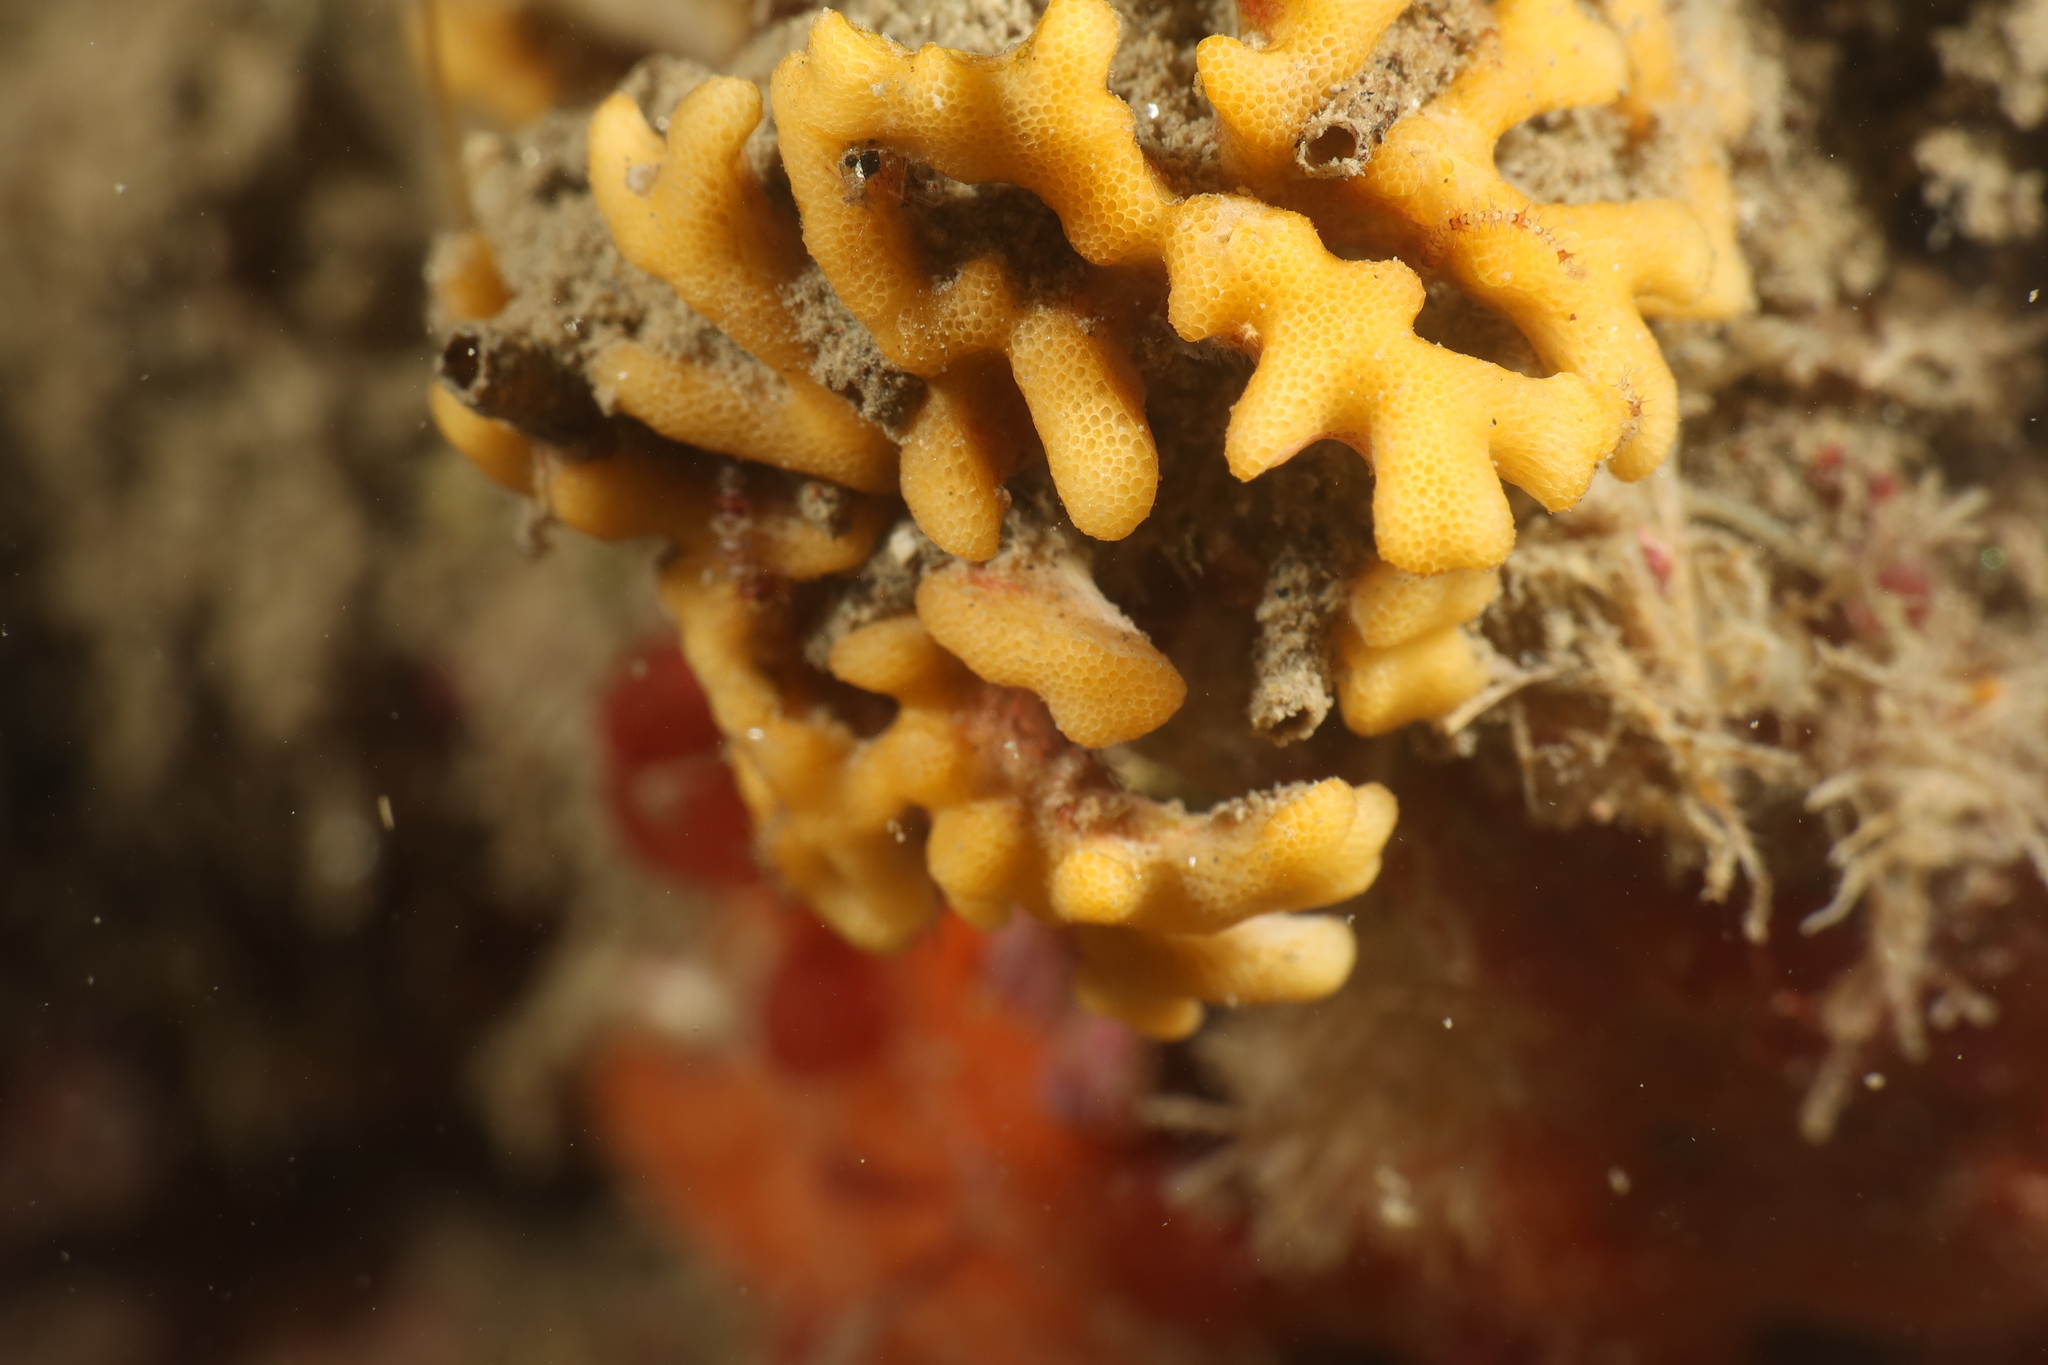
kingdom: Animalia
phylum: Bryozoa
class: Stenolaemata
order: Cyclostomatida
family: Frondiporidae
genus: Frondipora
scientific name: Frondipora verrucosa
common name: Warty leaf-bryozoan
